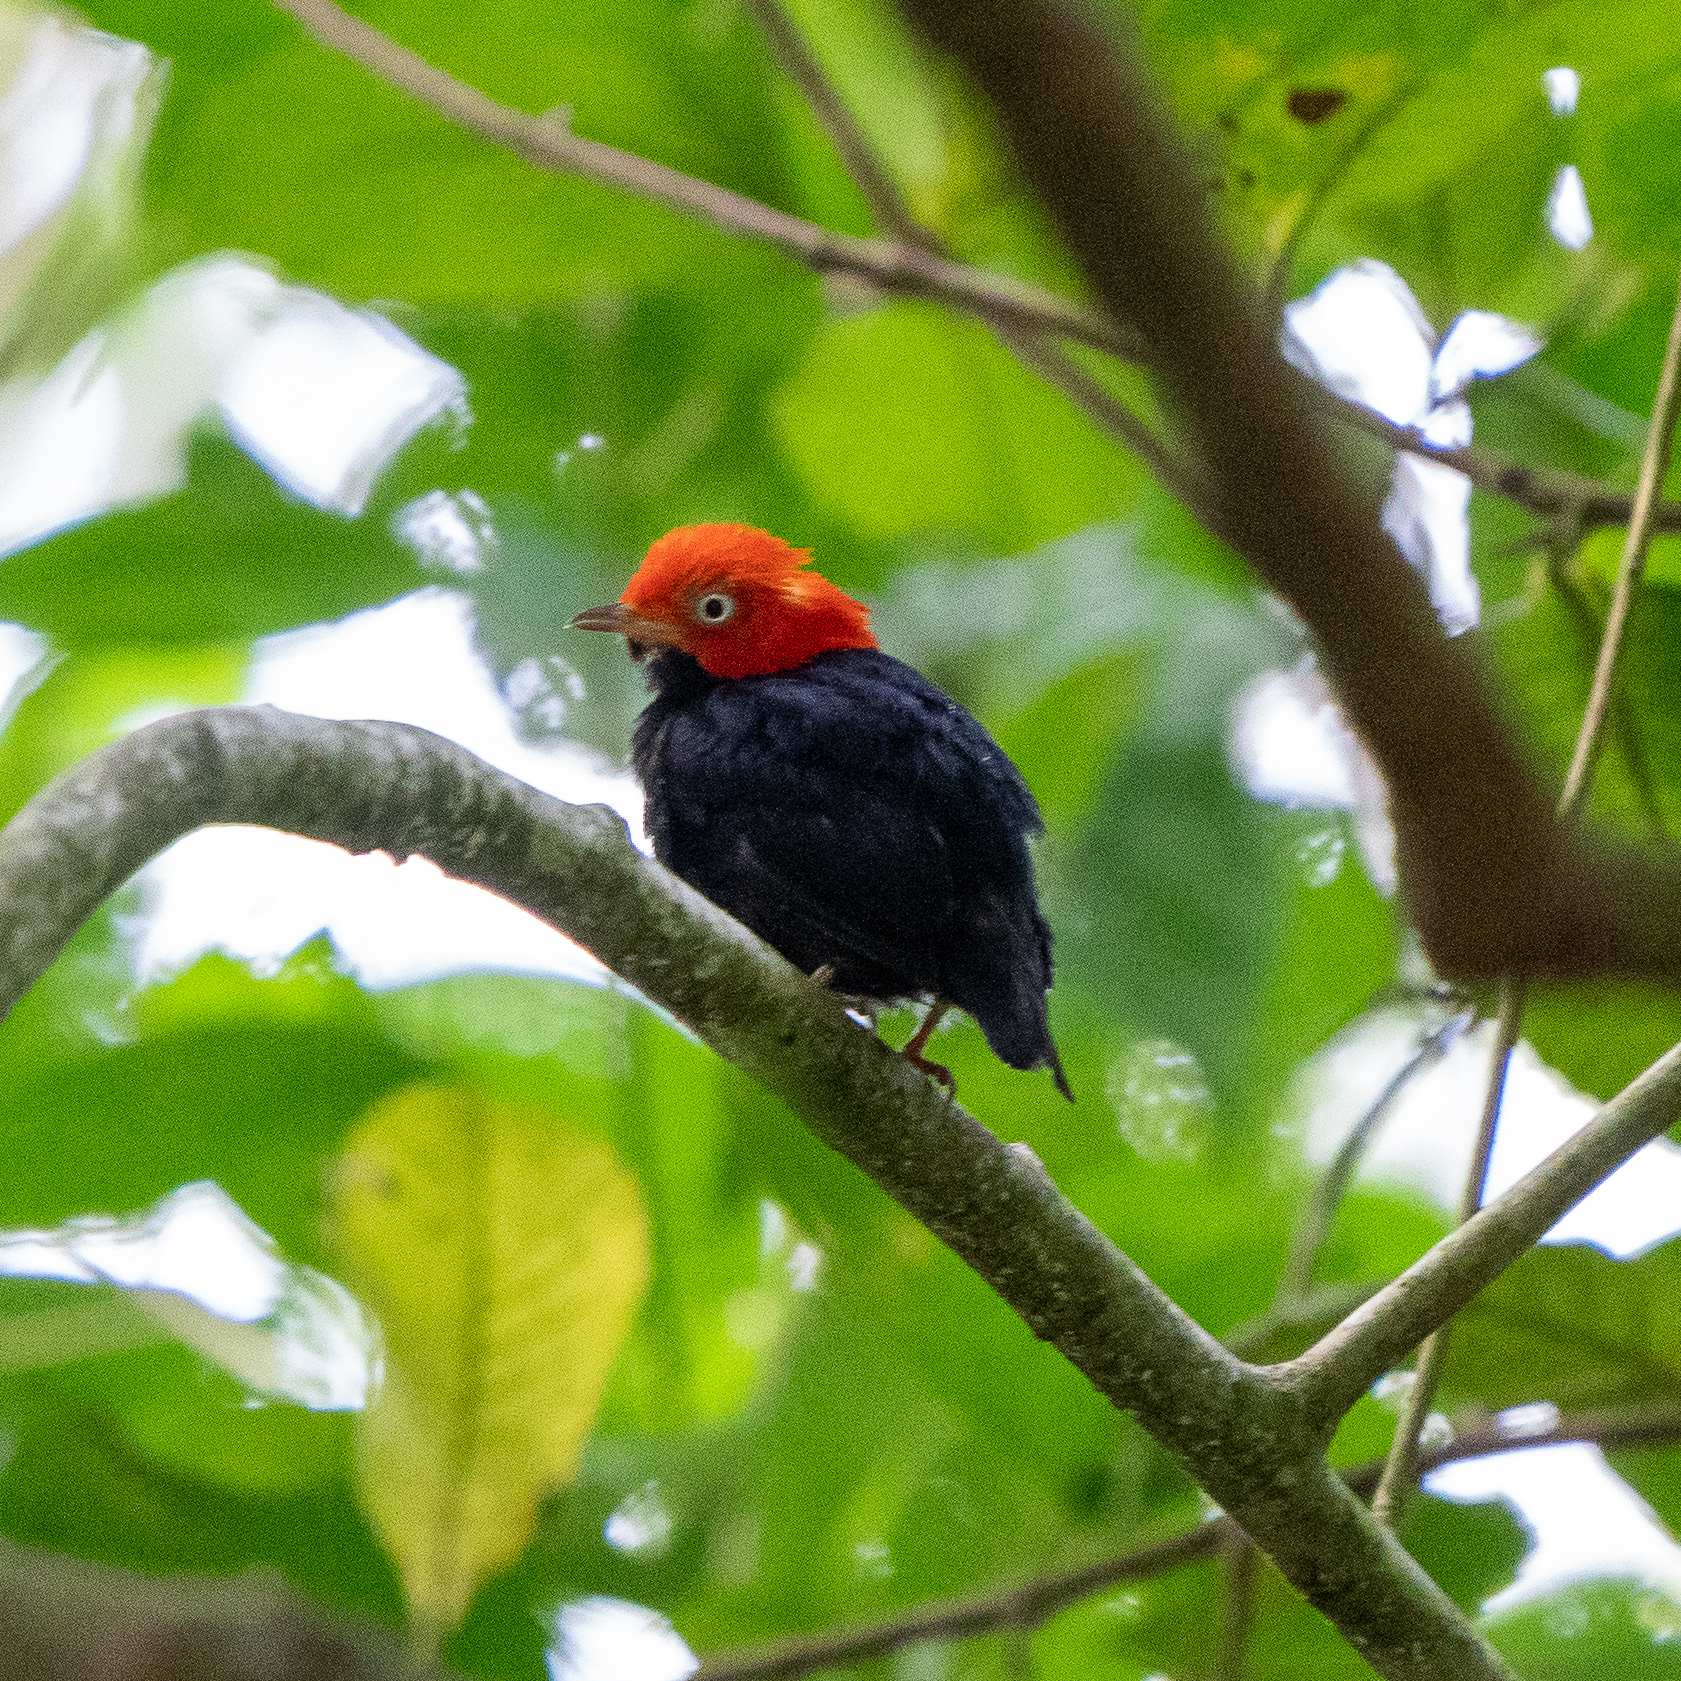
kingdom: Animalia
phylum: Chordata
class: Aves
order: Passeriformes
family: Pipridae
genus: Pipra
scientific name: Pipra mentalis
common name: Red-capped manakin
